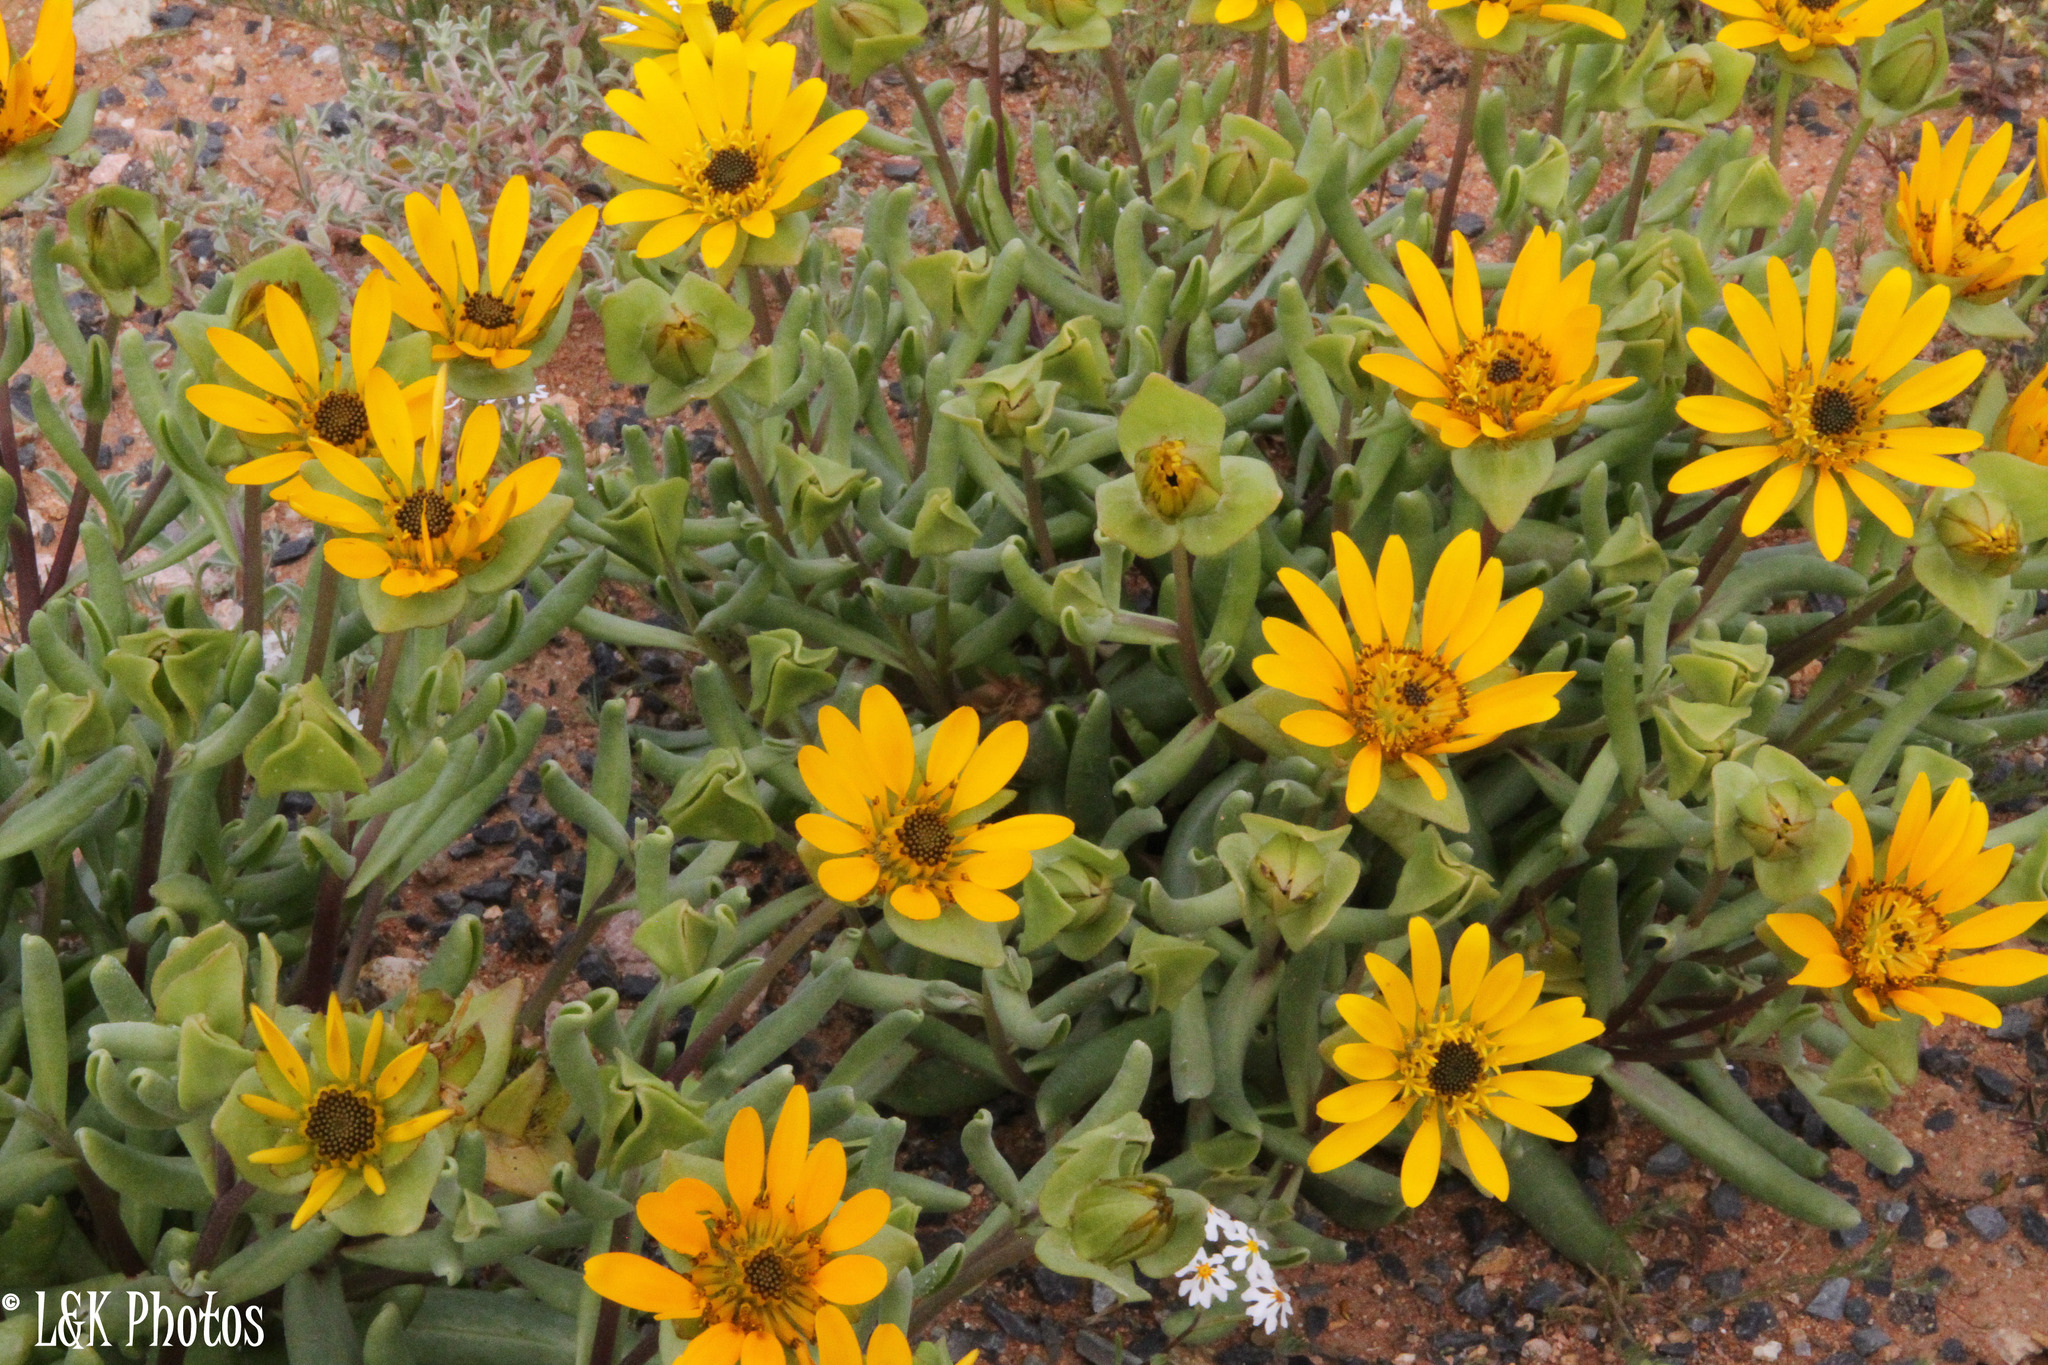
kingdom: Plantae
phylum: Tracheophyta
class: Magnoliopsida
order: Asterales
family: Asteraceae
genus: Didelta
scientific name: Didelta carnosa
